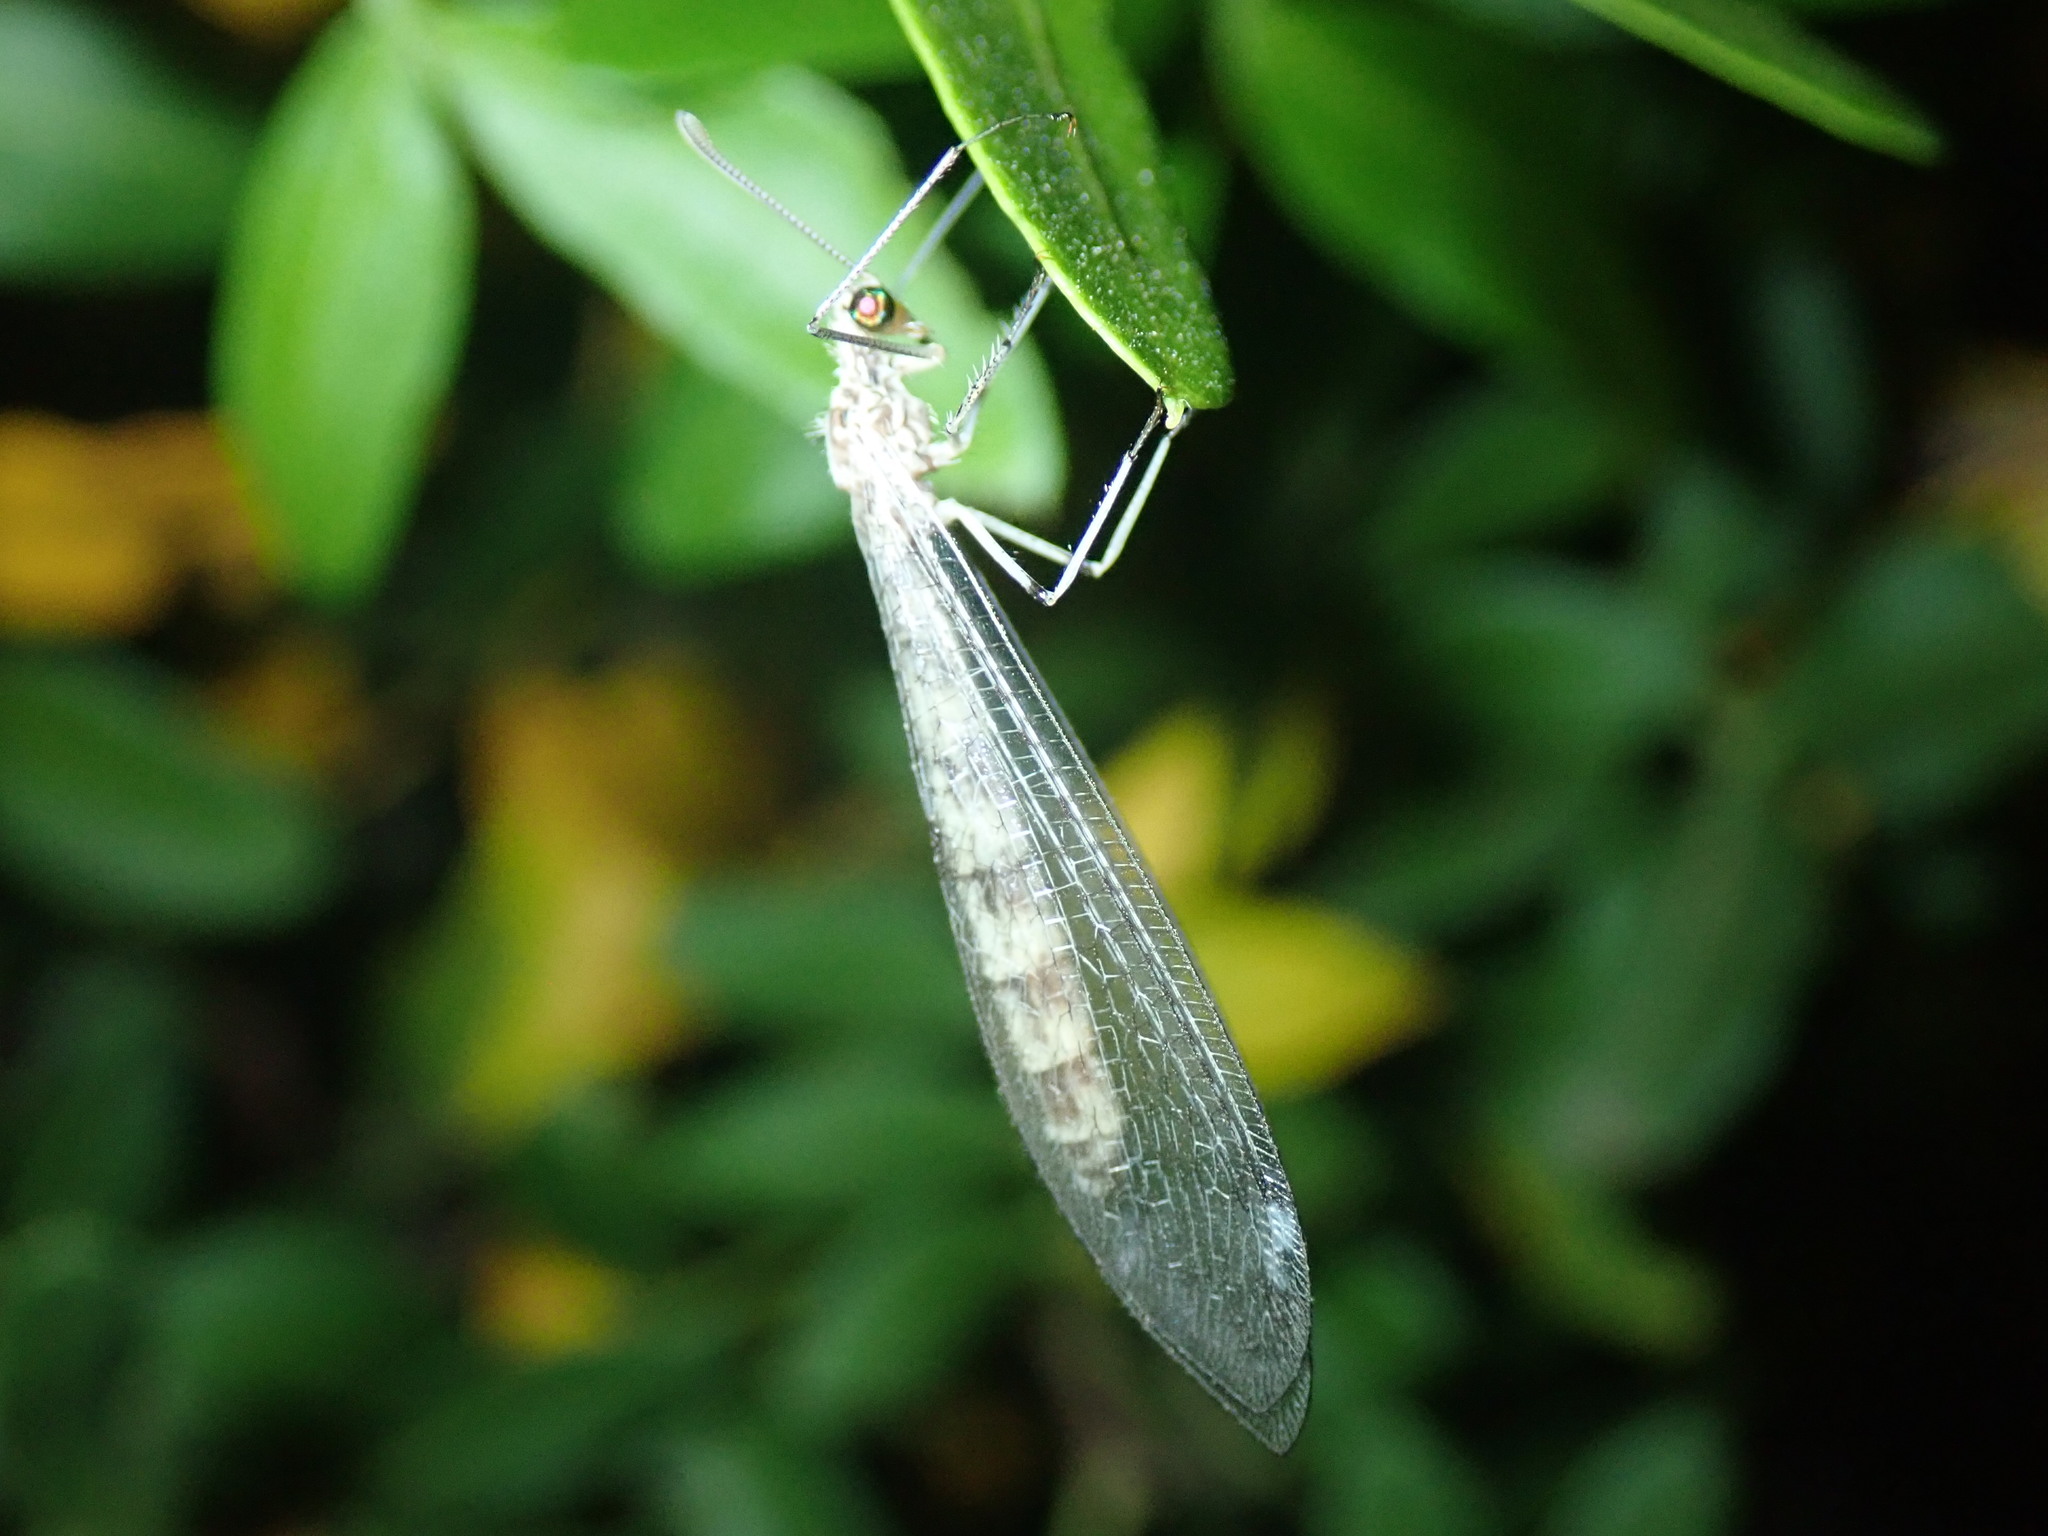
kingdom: Animalia
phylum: Arthropoda
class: Insecta
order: Neuroptera
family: Myrmeleontidae
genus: Gymnocnemia
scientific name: Gymnocnemia variegata
